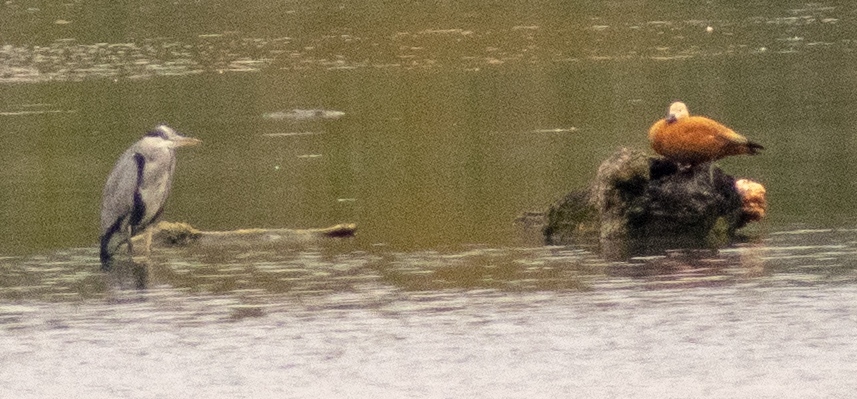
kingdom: Animalia
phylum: Chordata
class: Aves
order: Anseriformes
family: Anatidae
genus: Tadorna
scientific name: Tadorna ferruginea
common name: Ruddy shelduck
